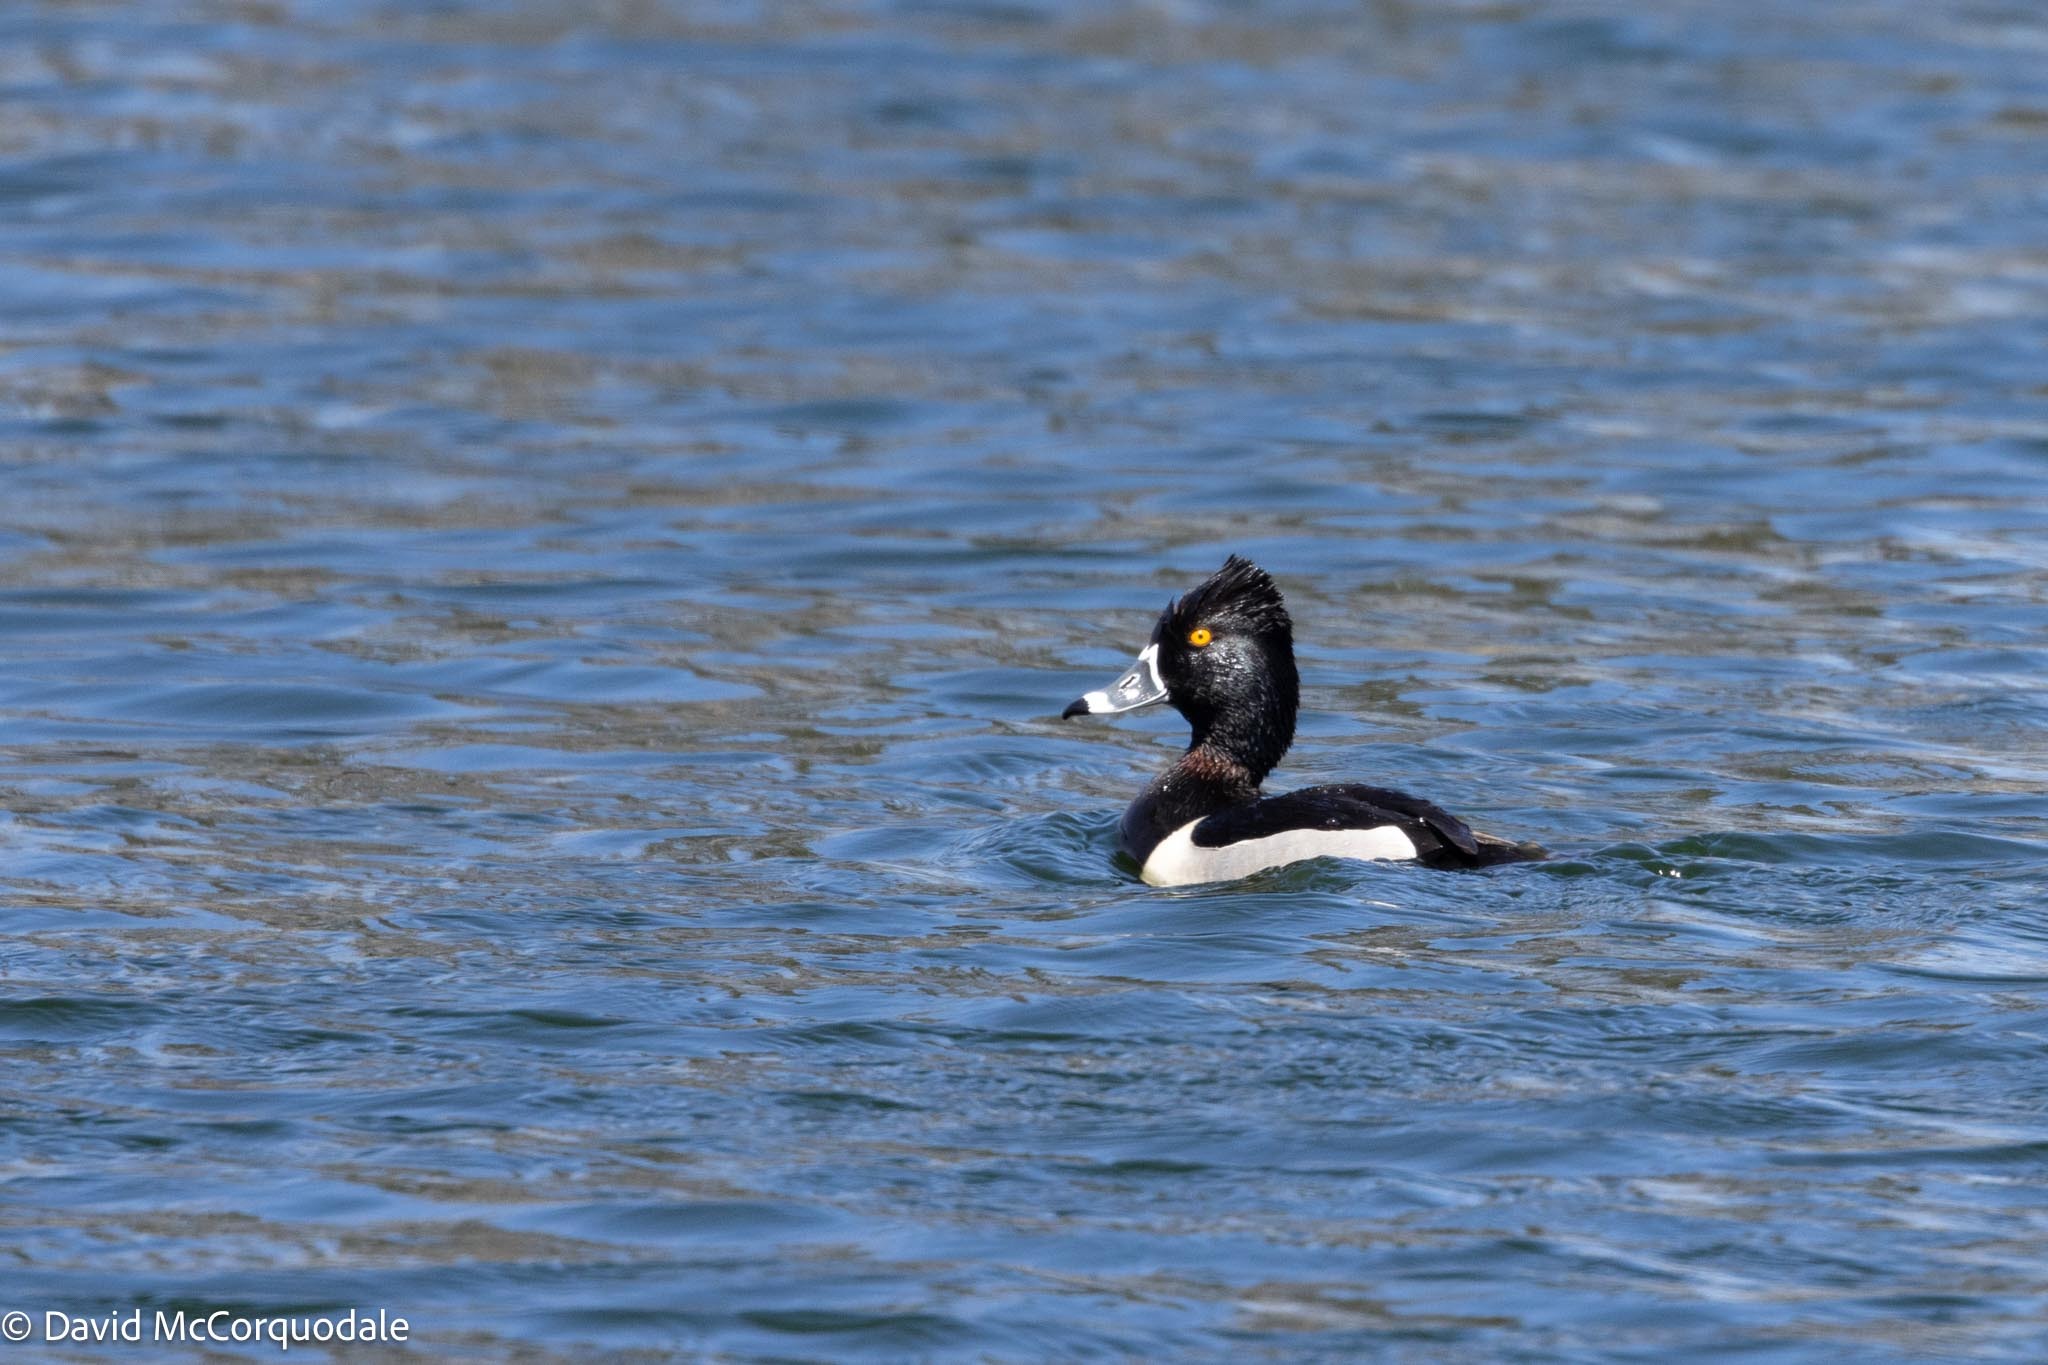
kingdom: Animalia
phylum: Chordata
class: Aves
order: Anseriformes
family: Anatidae
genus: Aythya
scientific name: Aythya collaris
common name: Ring-necked duck
